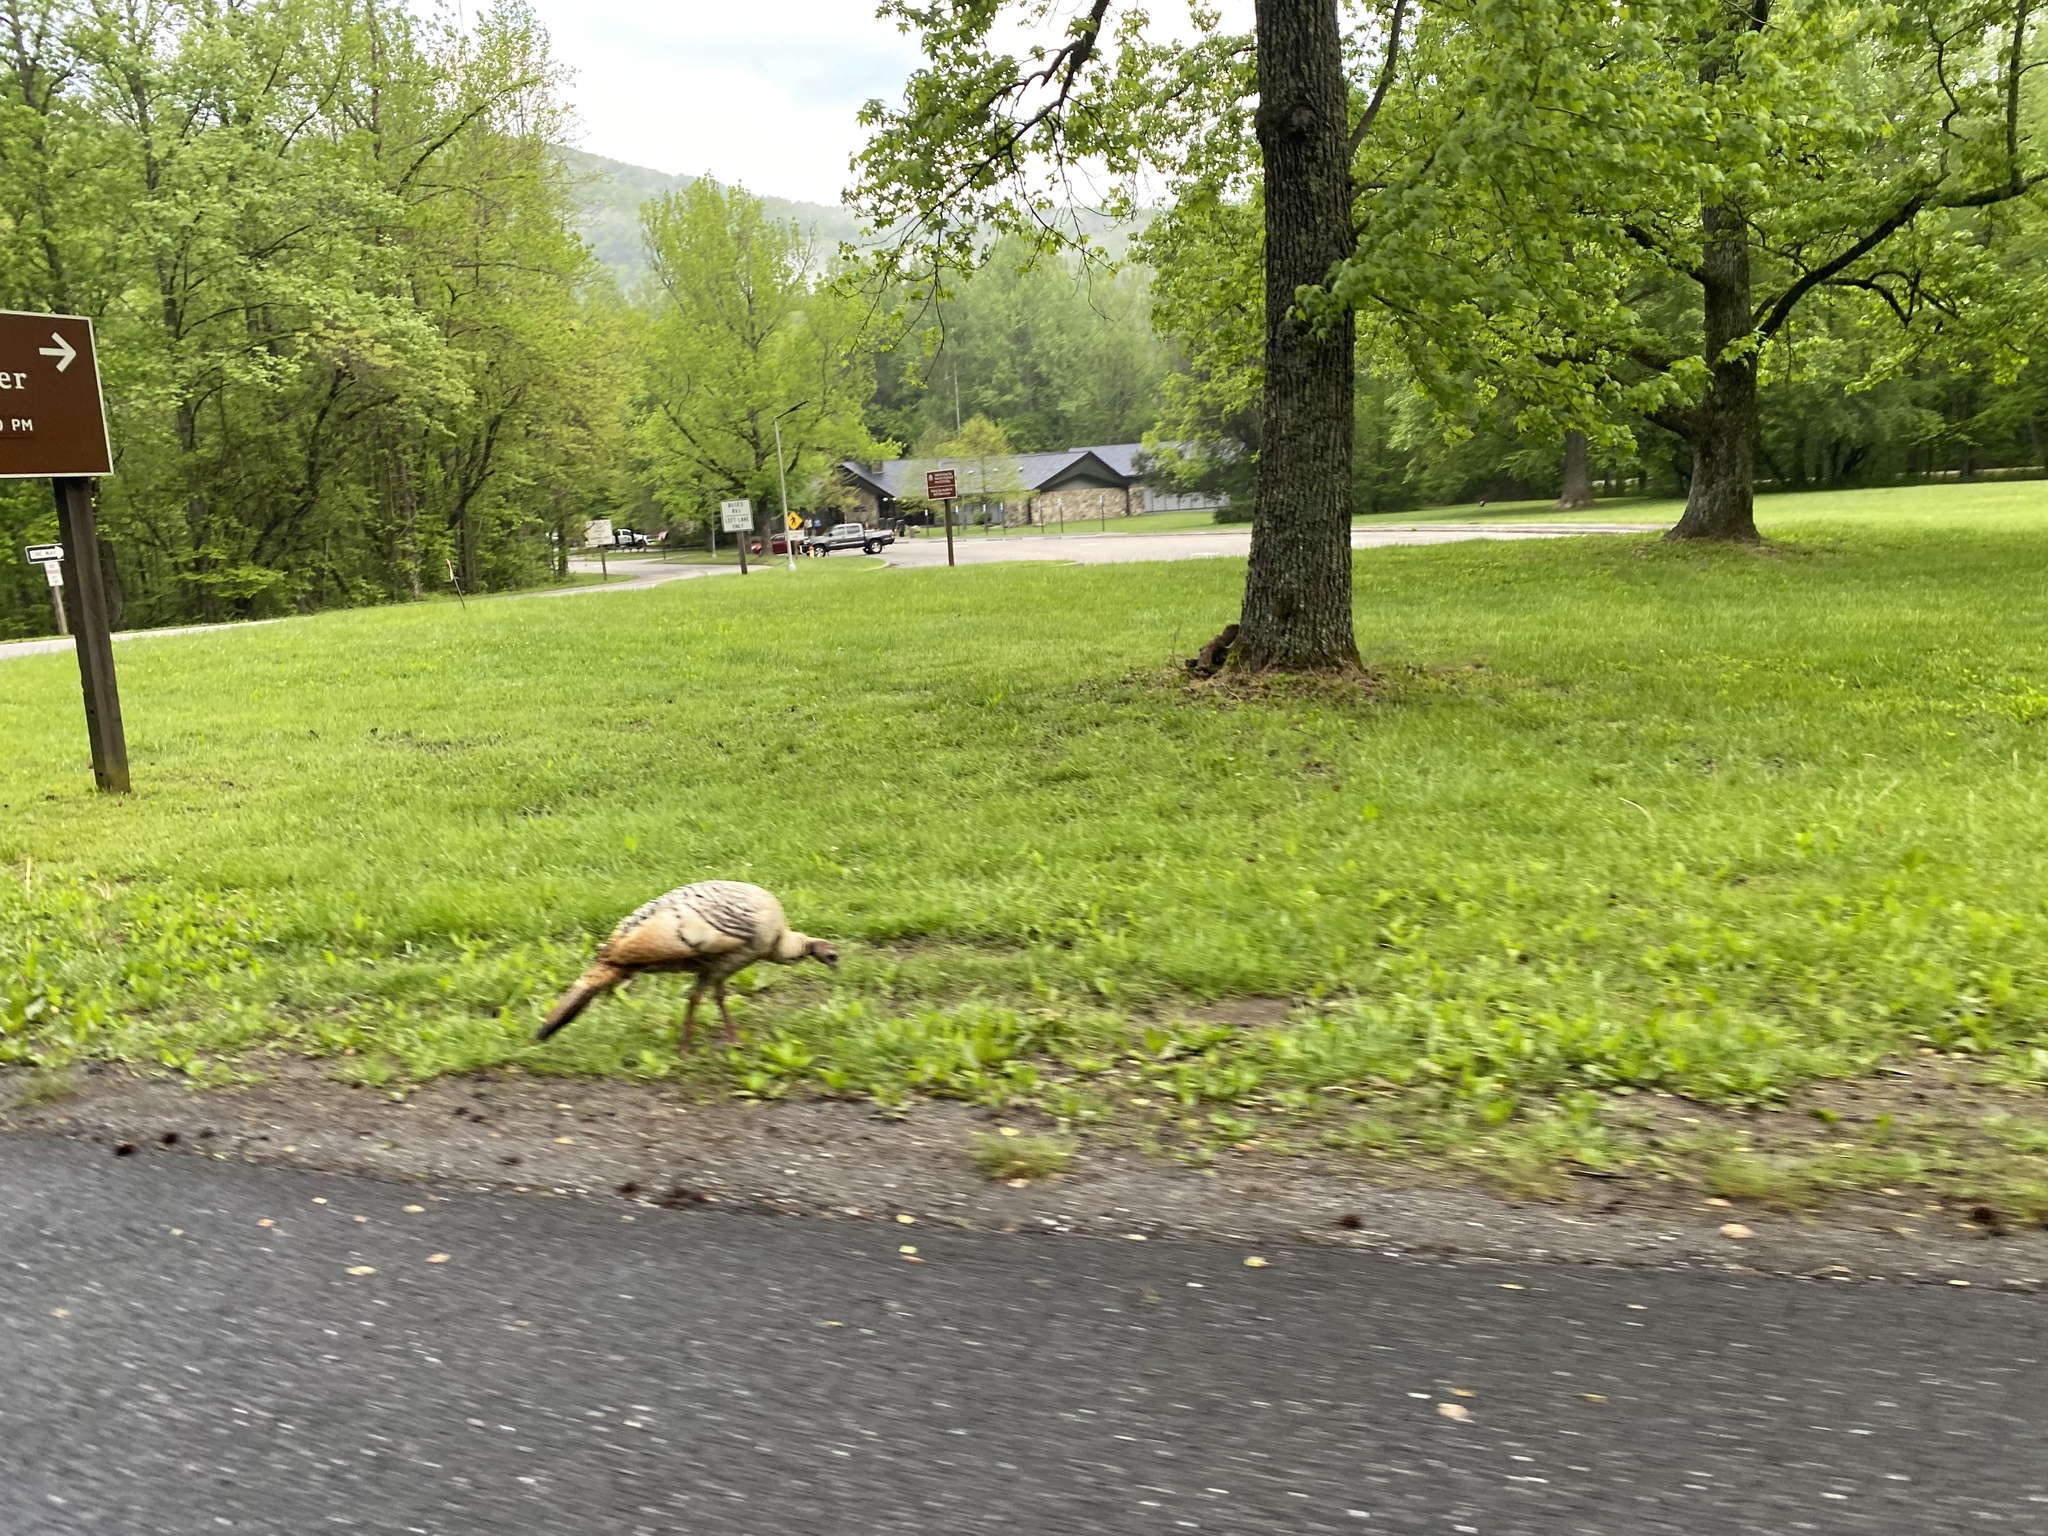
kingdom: Animalia
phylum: Chordata
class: Aves
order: Galliformes
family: Phasianidae
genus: Meleagris
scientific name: Meleagris gallopavo
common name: Wild turkey
